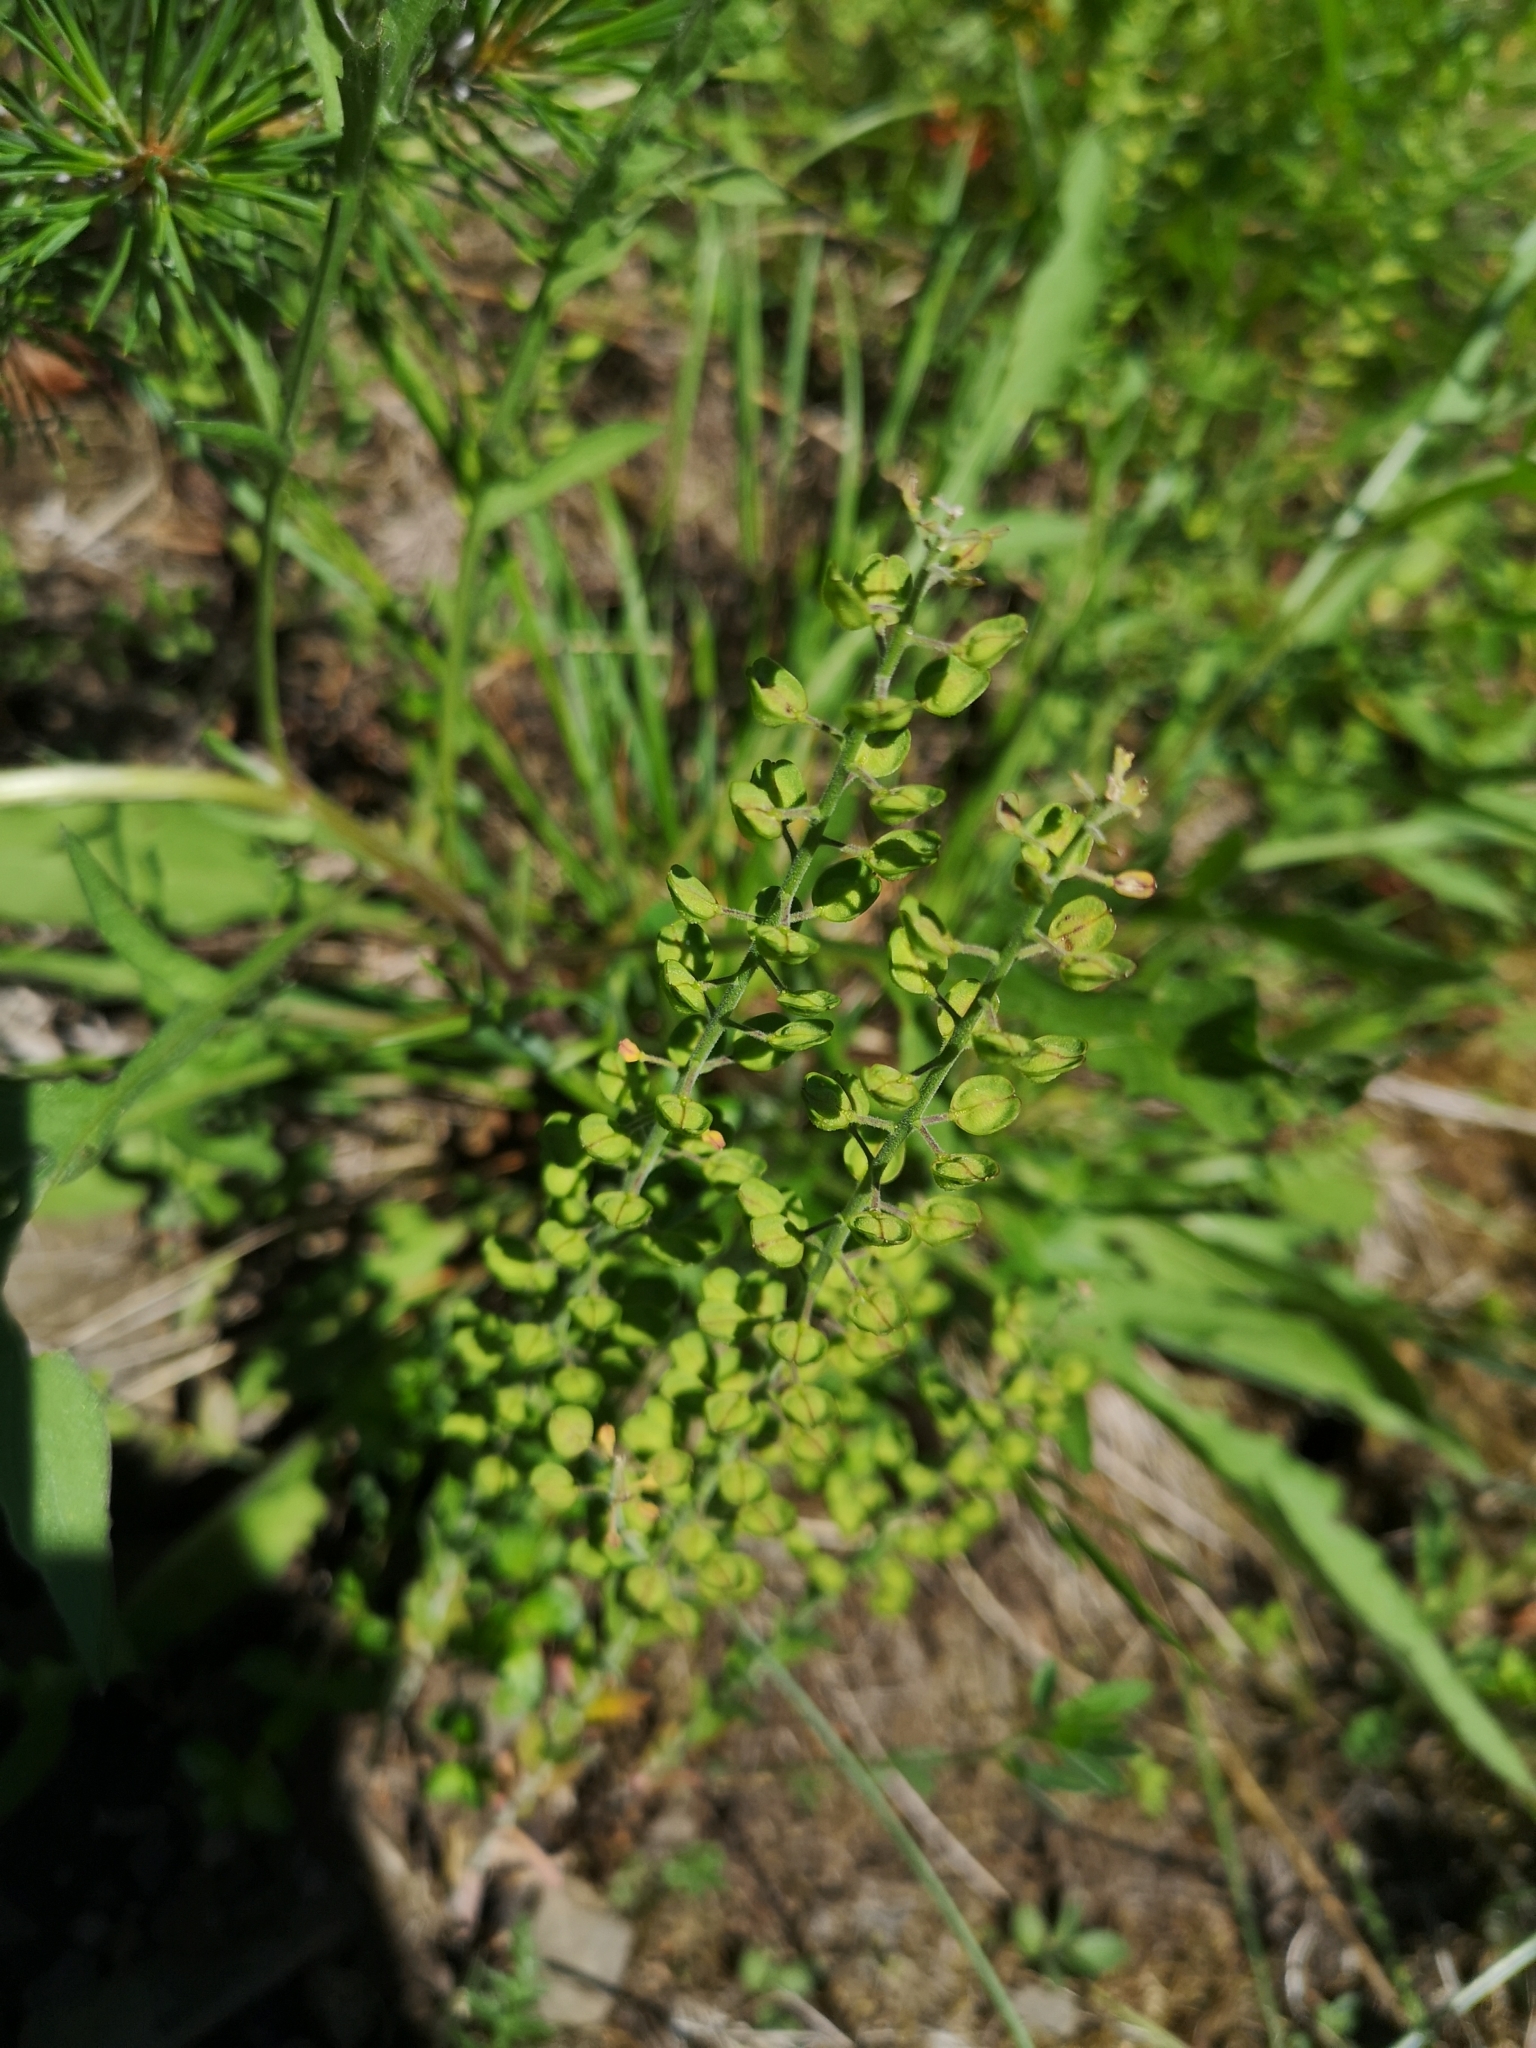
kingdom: Plantae
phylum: Tracheophyta
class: Magnoliopsida
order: Brassicales
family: Brassicaceae
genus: Lepidium
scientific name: Lepidium campestre
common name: Field pepperwort
